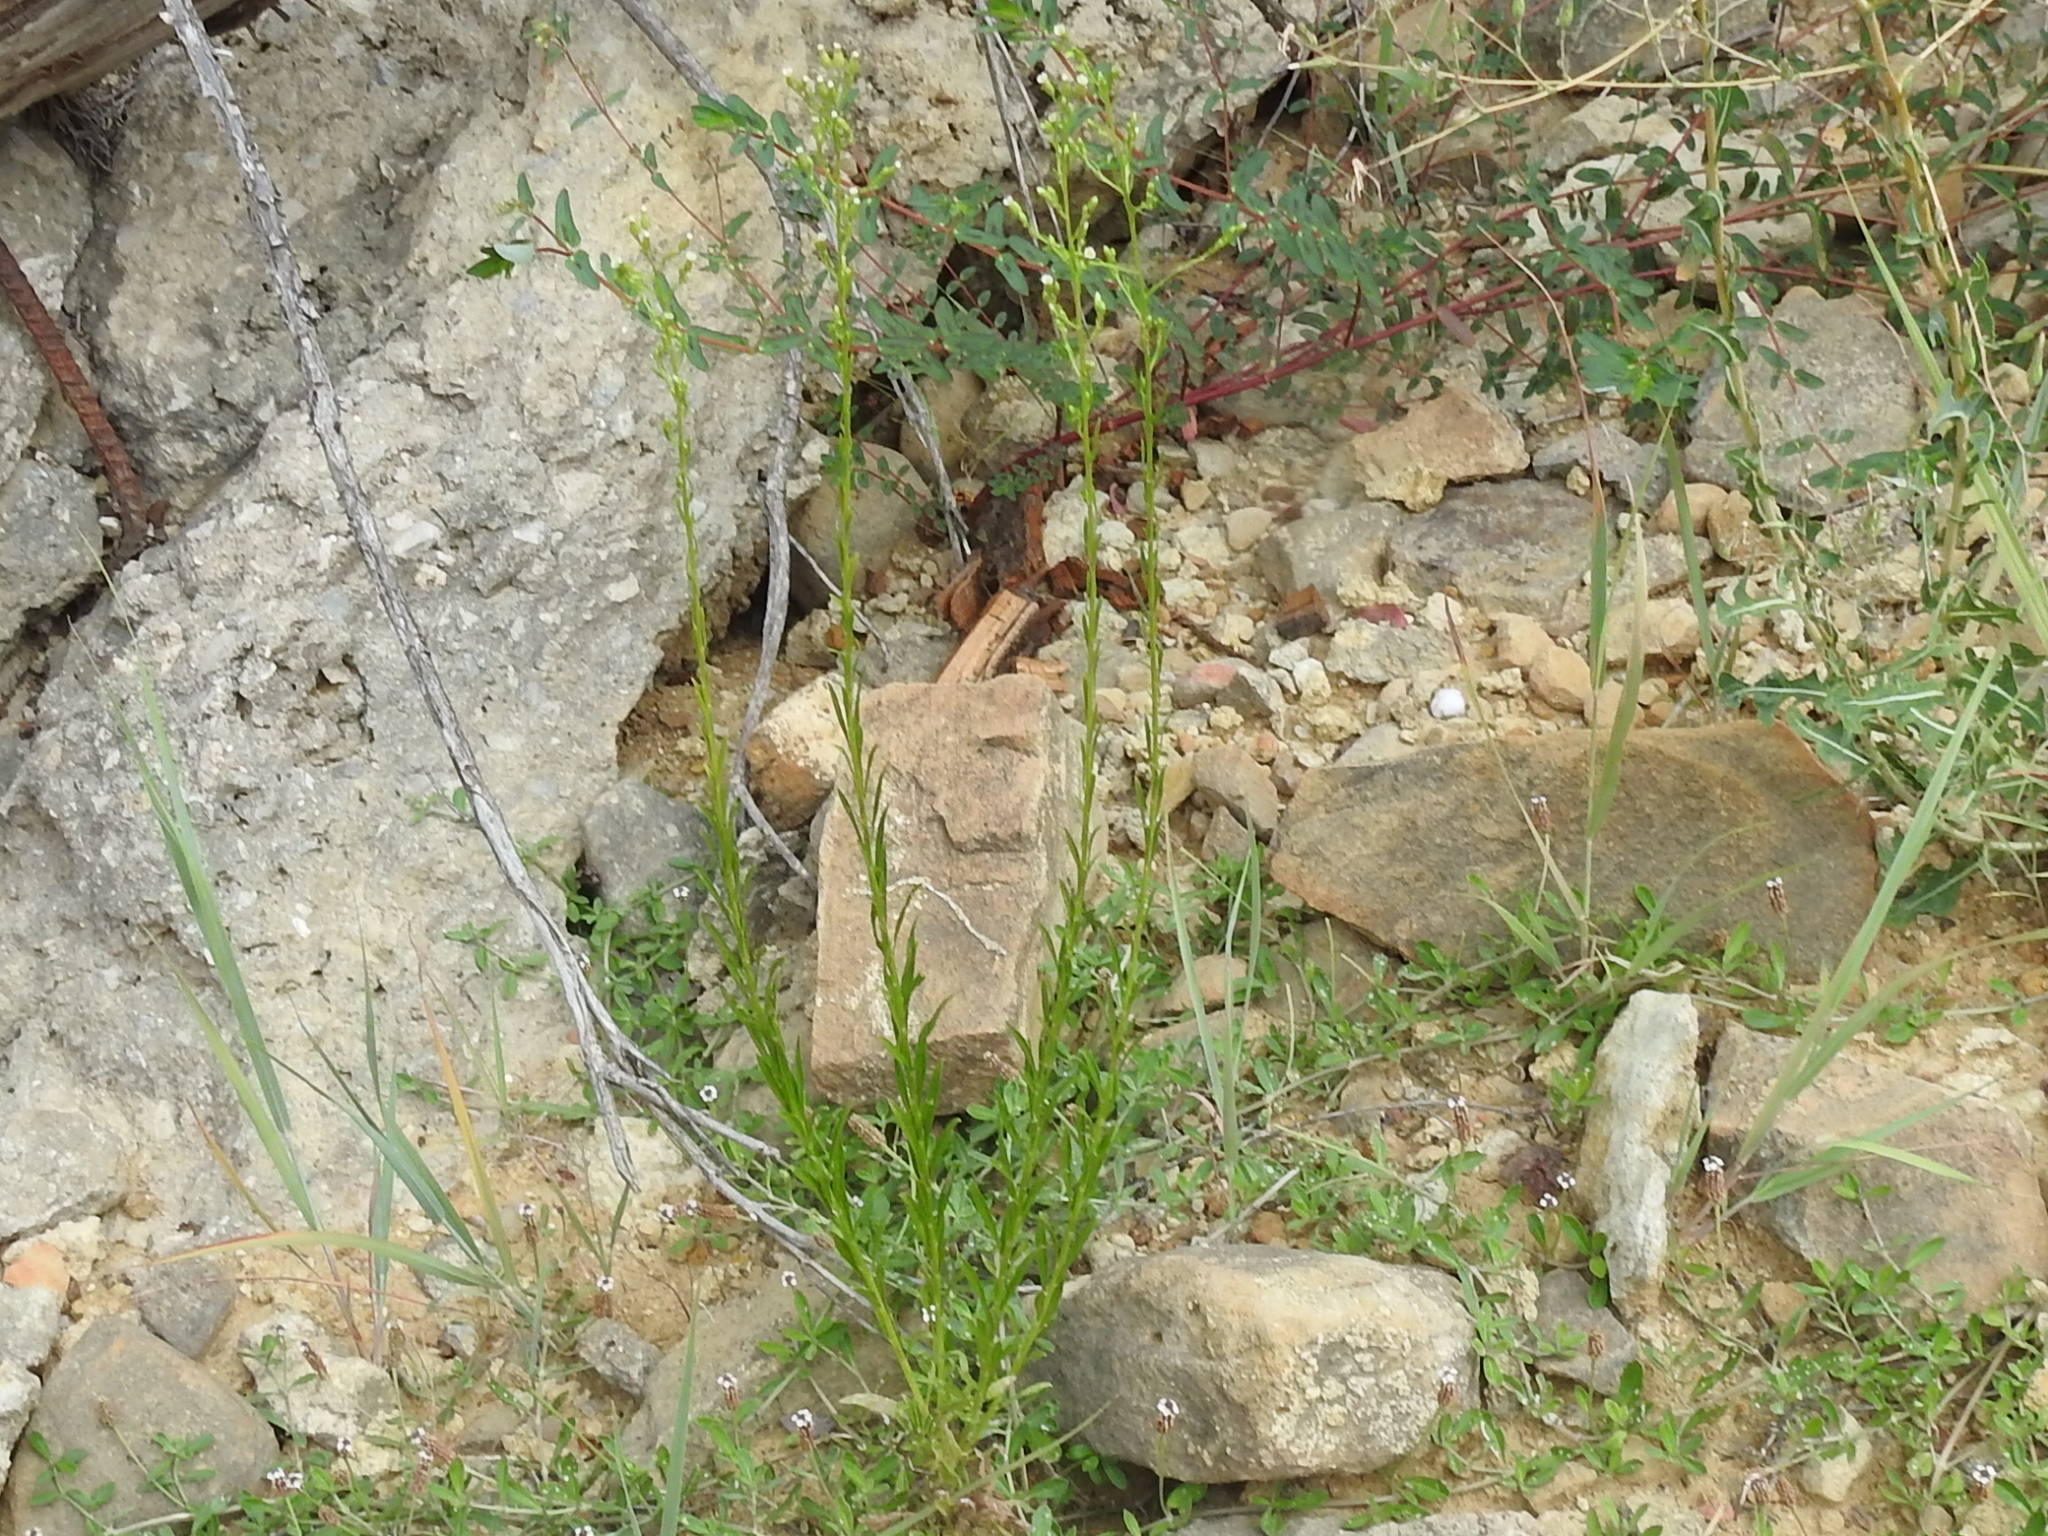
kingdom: Plantae
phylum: Tracheophyta
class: Magnoliopsida
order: Asterales
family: Asteraceae
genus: Erigeron
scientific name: Erigeron canadensis
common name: Canadian fleabane
